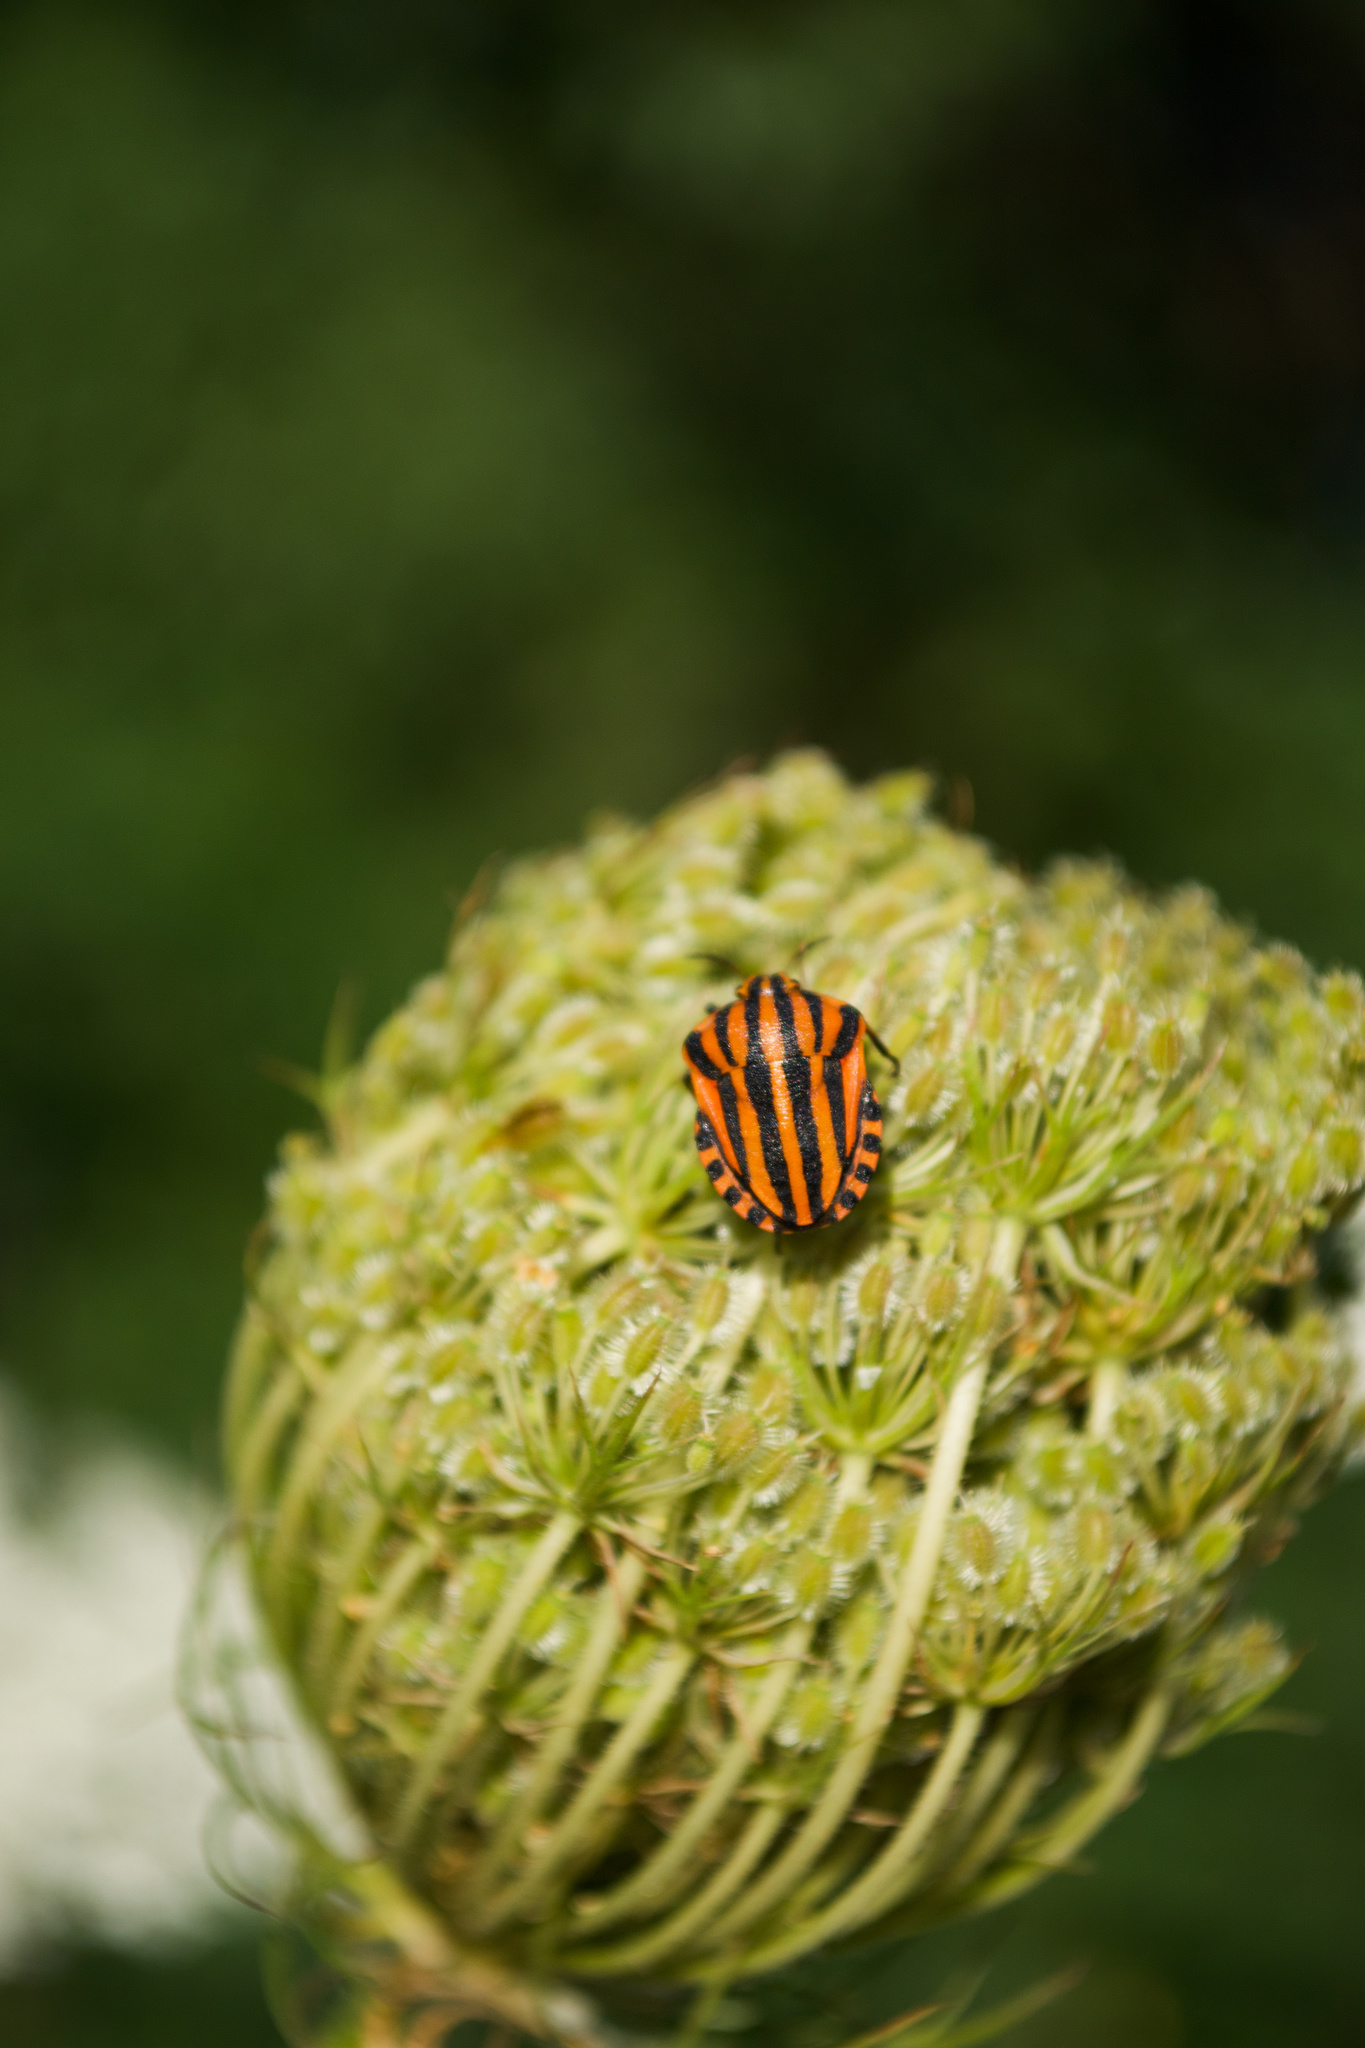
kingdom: Animalia
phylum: Arthropoda
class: Insecta
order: Hemiptera
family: Pentatomidae
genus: Graphosoma
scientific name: Graphosoma italicum
